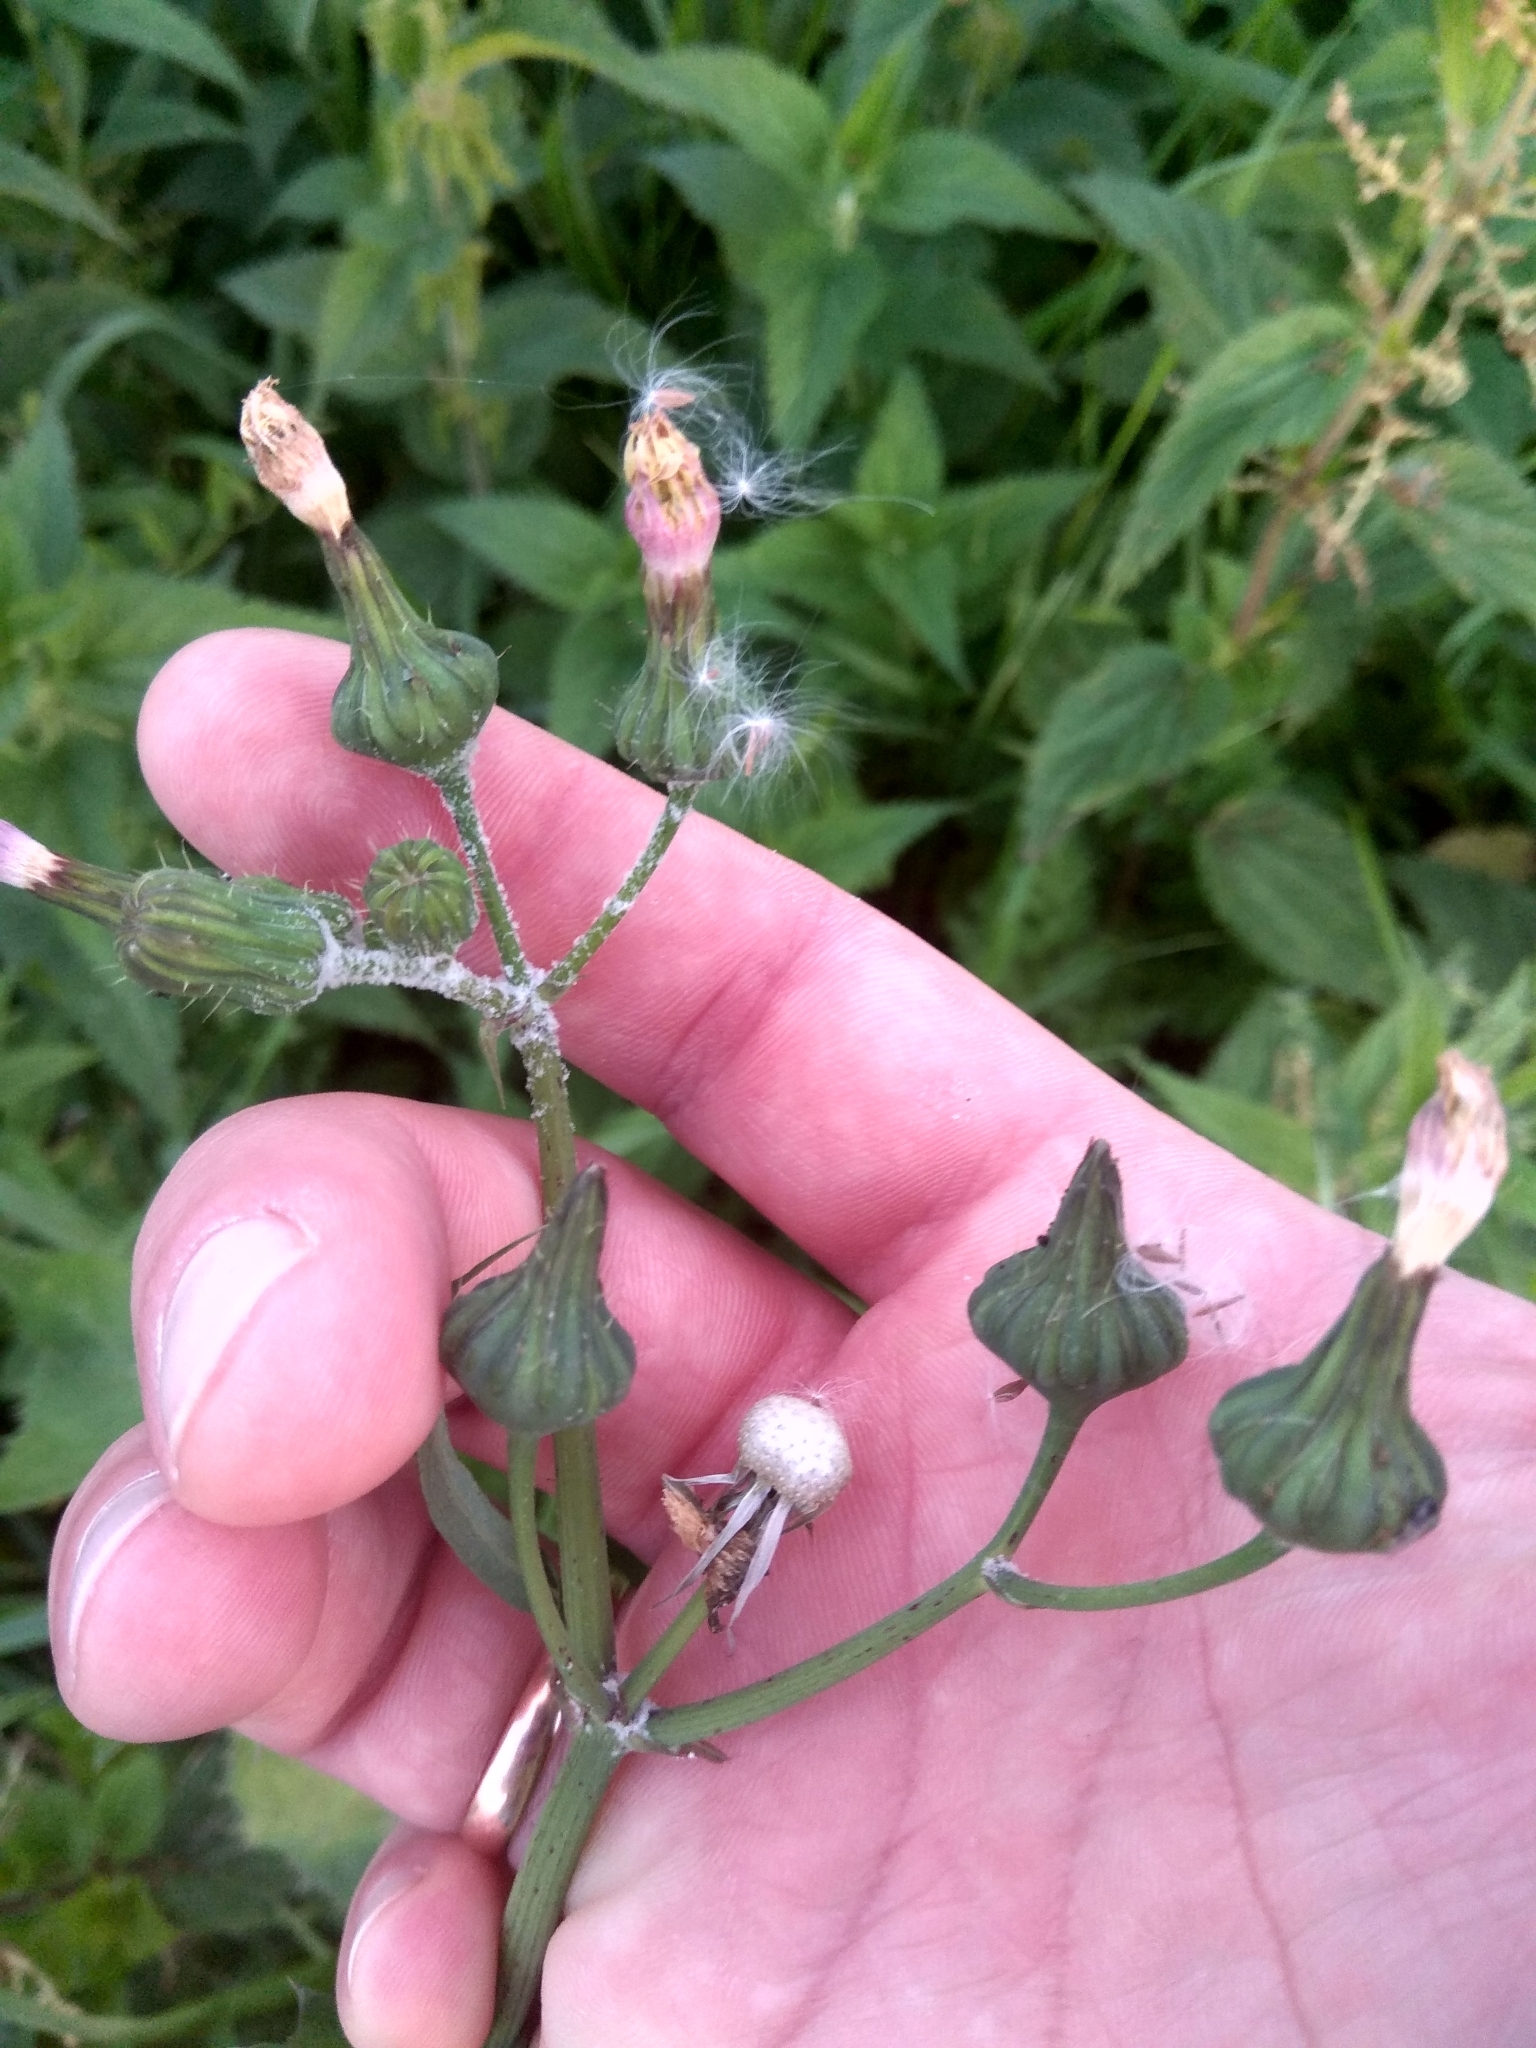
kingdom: Plantae
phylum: Tracheophyta
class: Magnoliopsida
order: Asterales
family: Asteraceae
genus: Sonchus
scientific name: Sonchus oleraceus
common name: Common sowthistle
